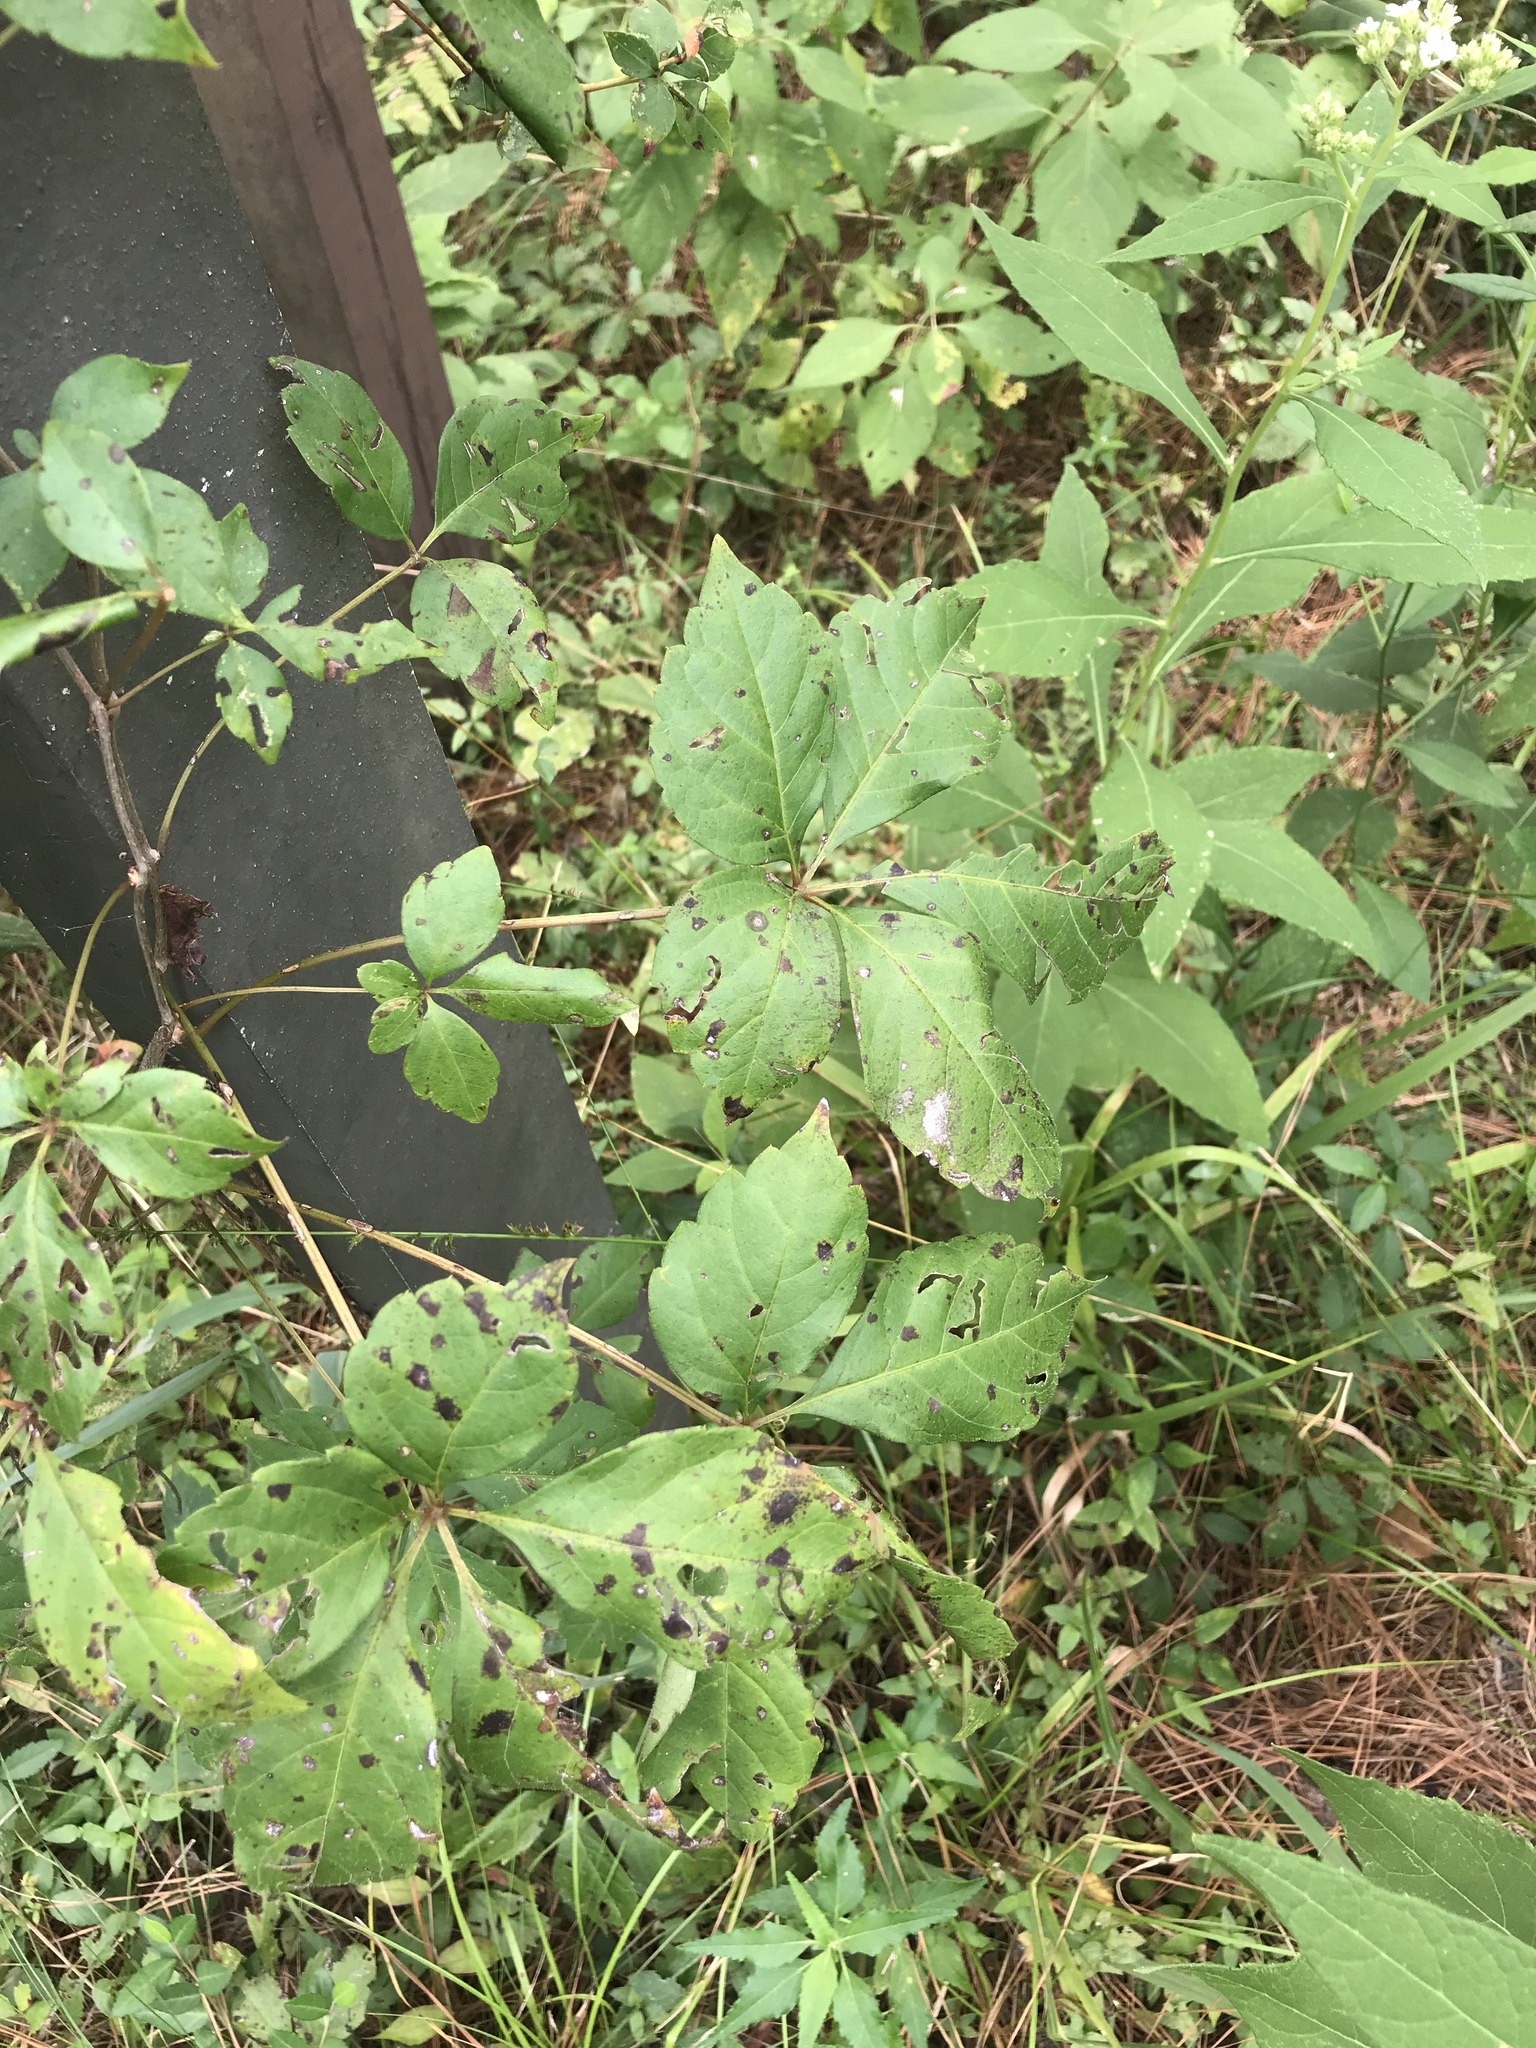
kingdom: Plantae
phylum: Tracheophyta
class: Magnoliopsida
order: Vitales
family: Vitaceae
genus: Parthenocissus
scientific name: Parthenocissus quinquefolia
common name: Virginia-creeper
